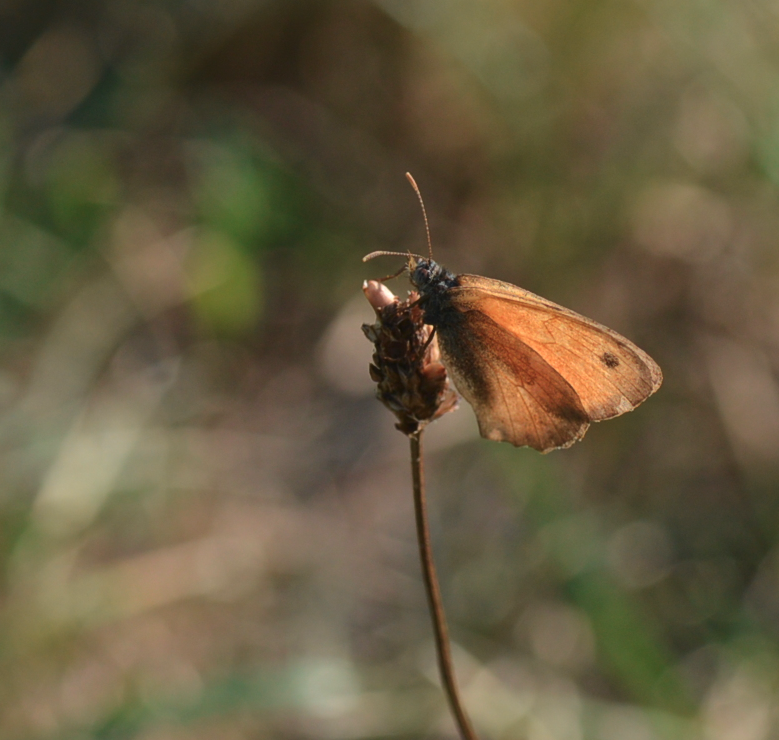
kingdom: Animalia
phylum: Arthropoda
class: Insecta
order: Lepidoptera
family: Nymphalidae
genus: Coenonympha
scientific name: Coenonympha pamphilus
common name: Small heath
